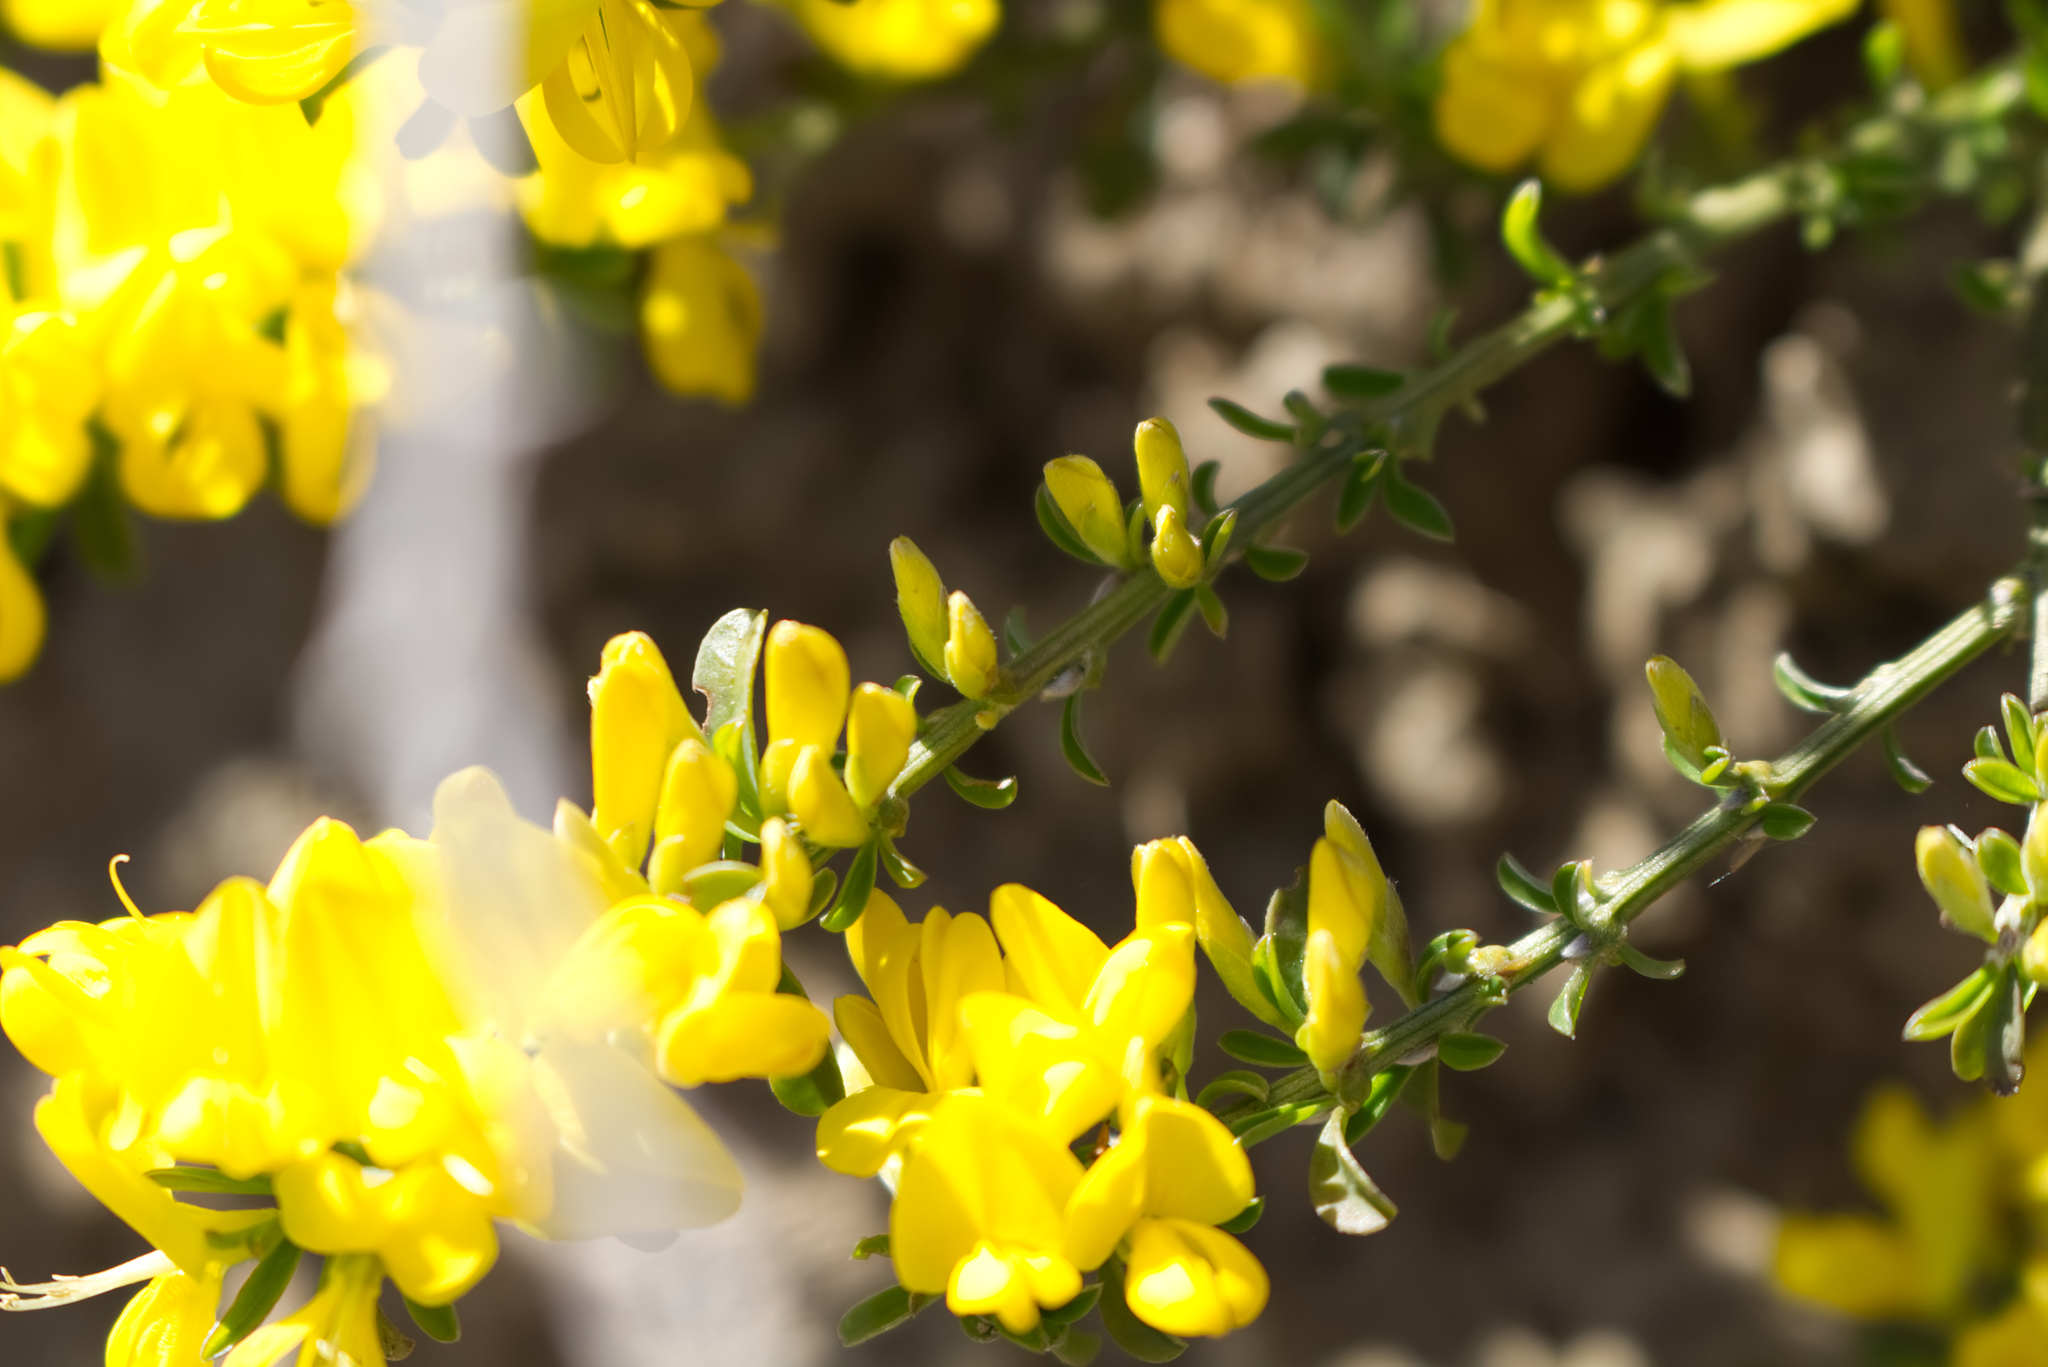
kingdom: Plantae
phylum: Tracheophyta
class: Magnoliopsida
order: Fabales
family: Fabaceae
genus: Genista
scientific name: Genista pilosa
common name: Hairy greenweed
